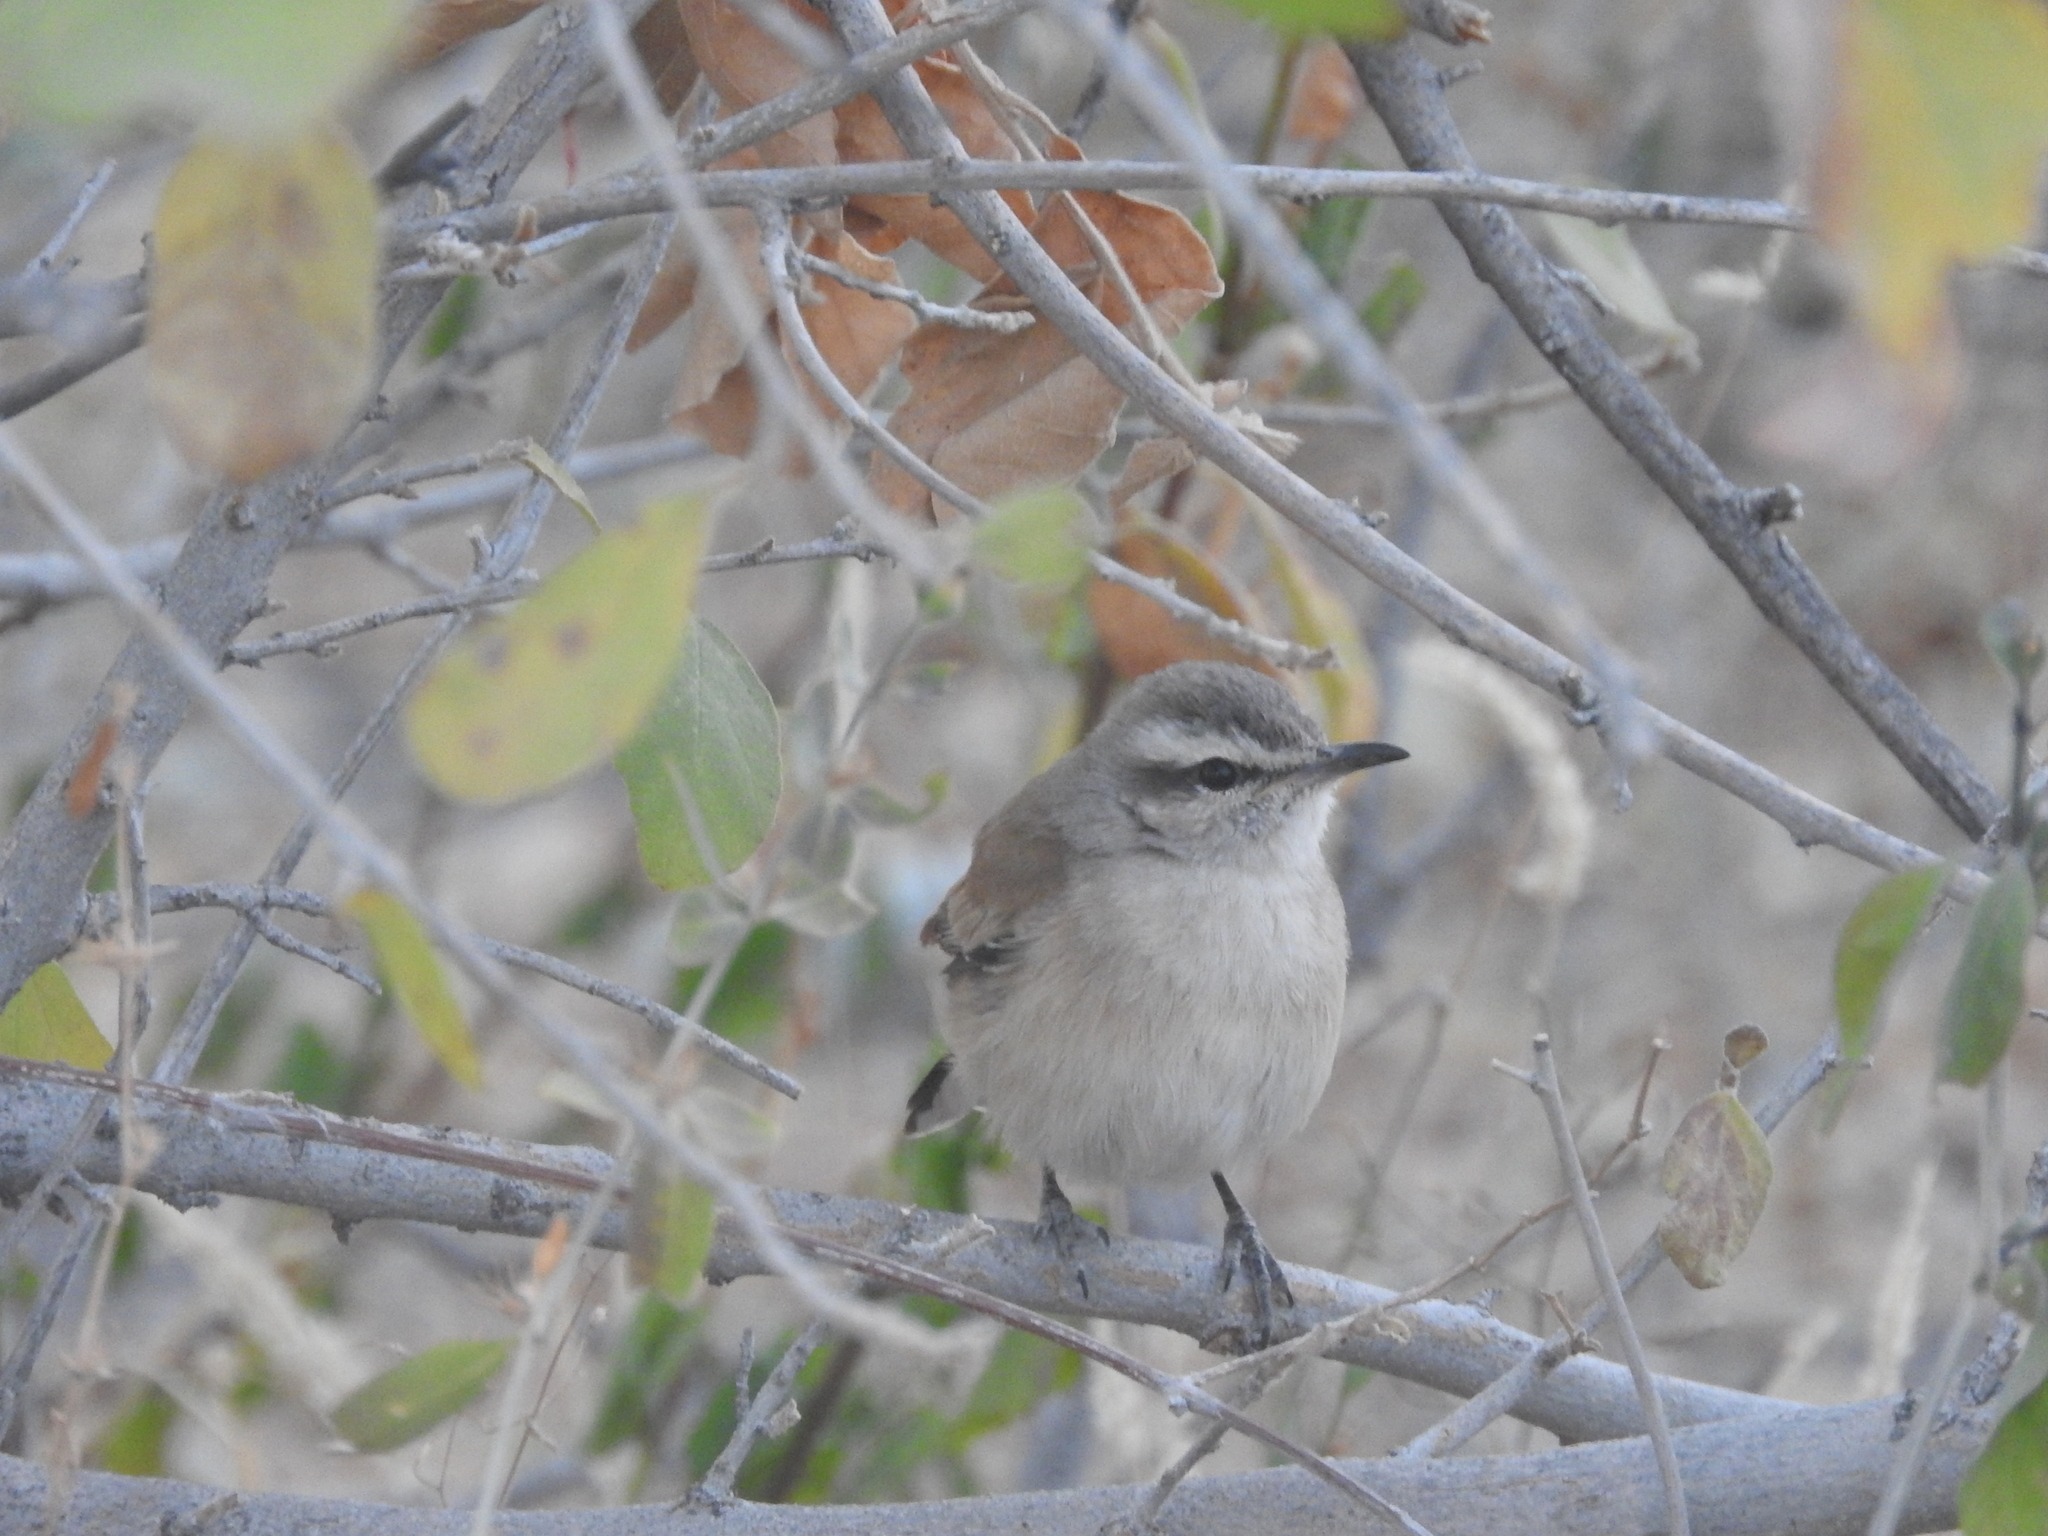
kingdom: Animalia
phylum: Chordata
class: Aves
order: Passeriformes
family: Muscicapidae
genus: Erythropygia
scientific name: Erythropygia paena
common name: Kalahari scrub robin
